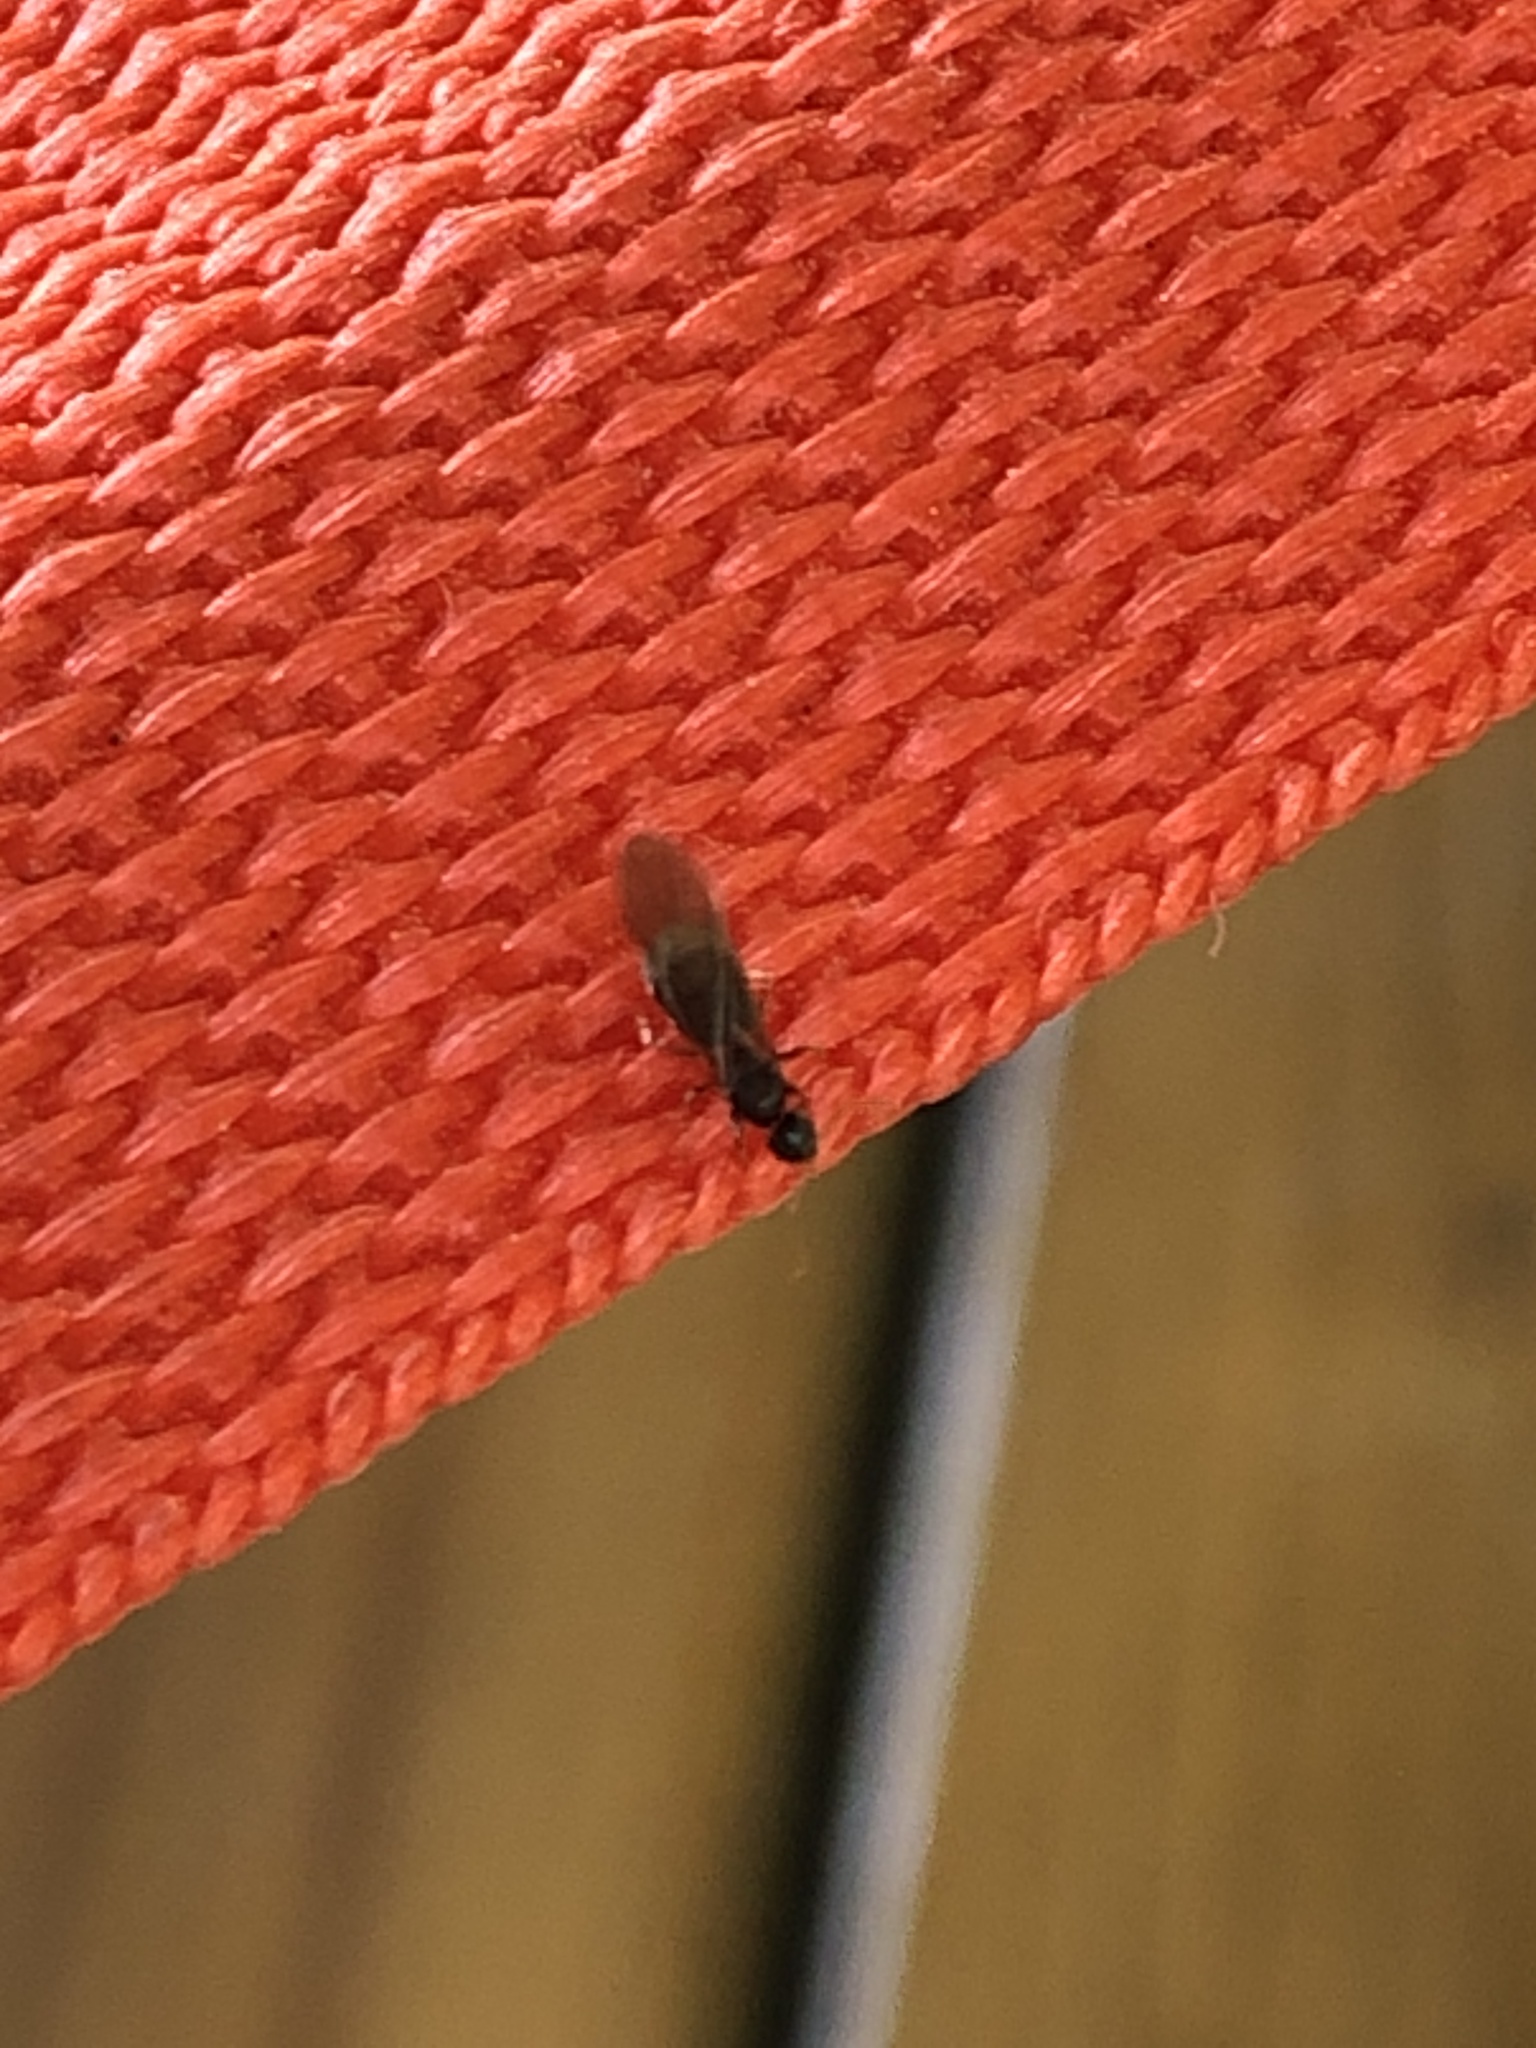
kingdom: Animalia
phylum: Arthropoda
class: Insecta
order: Hymenoptera
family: Formicidae
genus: Paratrechina
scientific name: Paratrechina flavipes
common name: Eastern asian formicine ant
